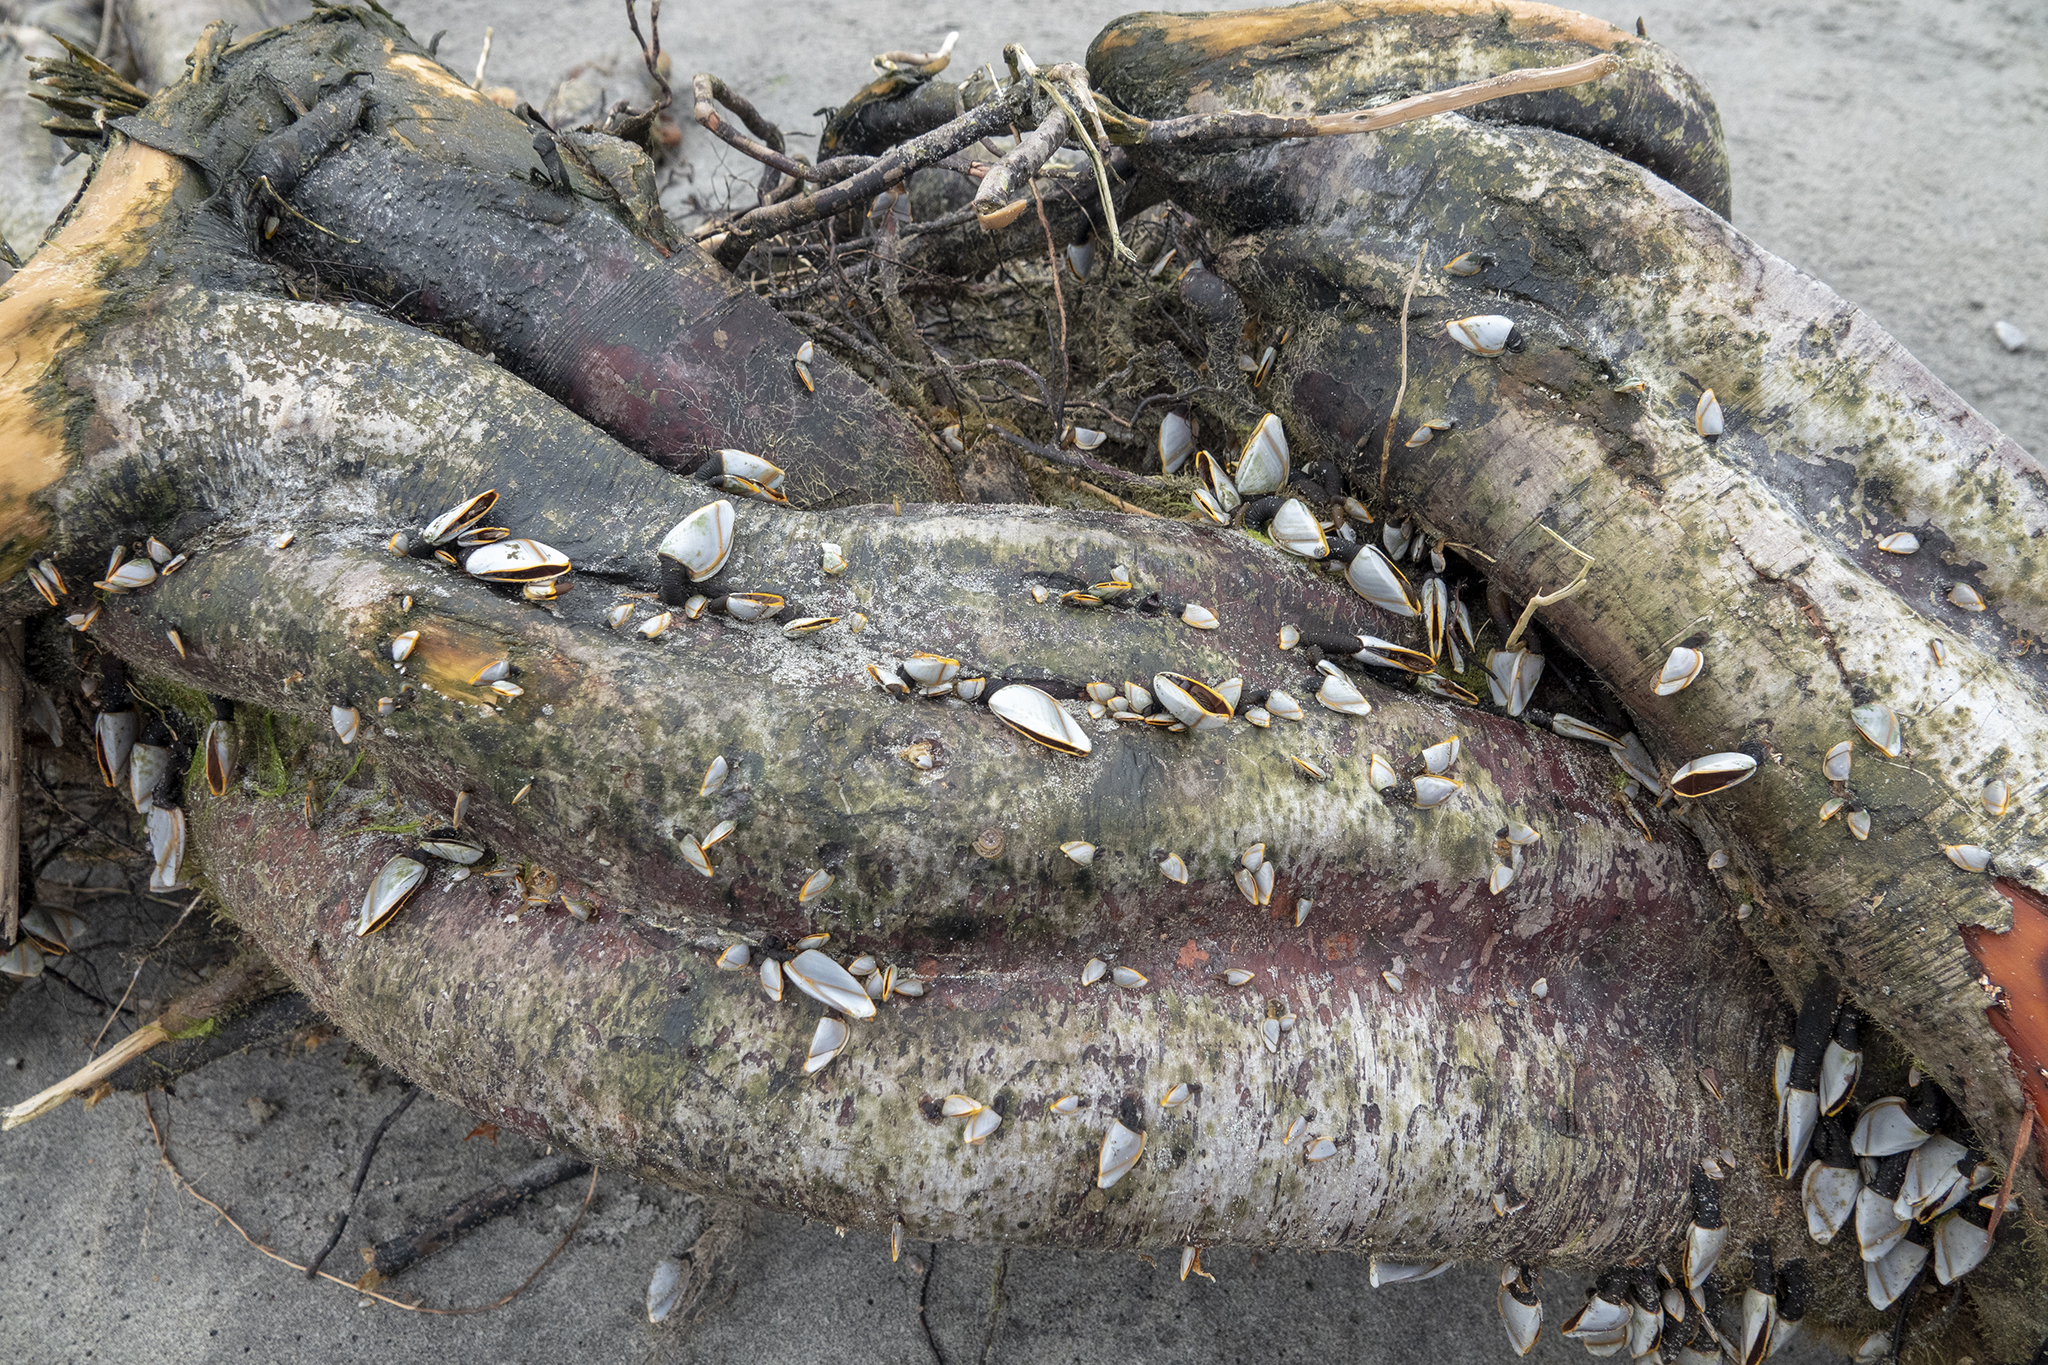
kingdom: Animalia
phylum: Arthropoda
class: Maxillopoda
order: Pedunculata
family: Lepadidae
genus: Lepas
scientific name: Lepas anatifera
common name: Common goose barnacle
